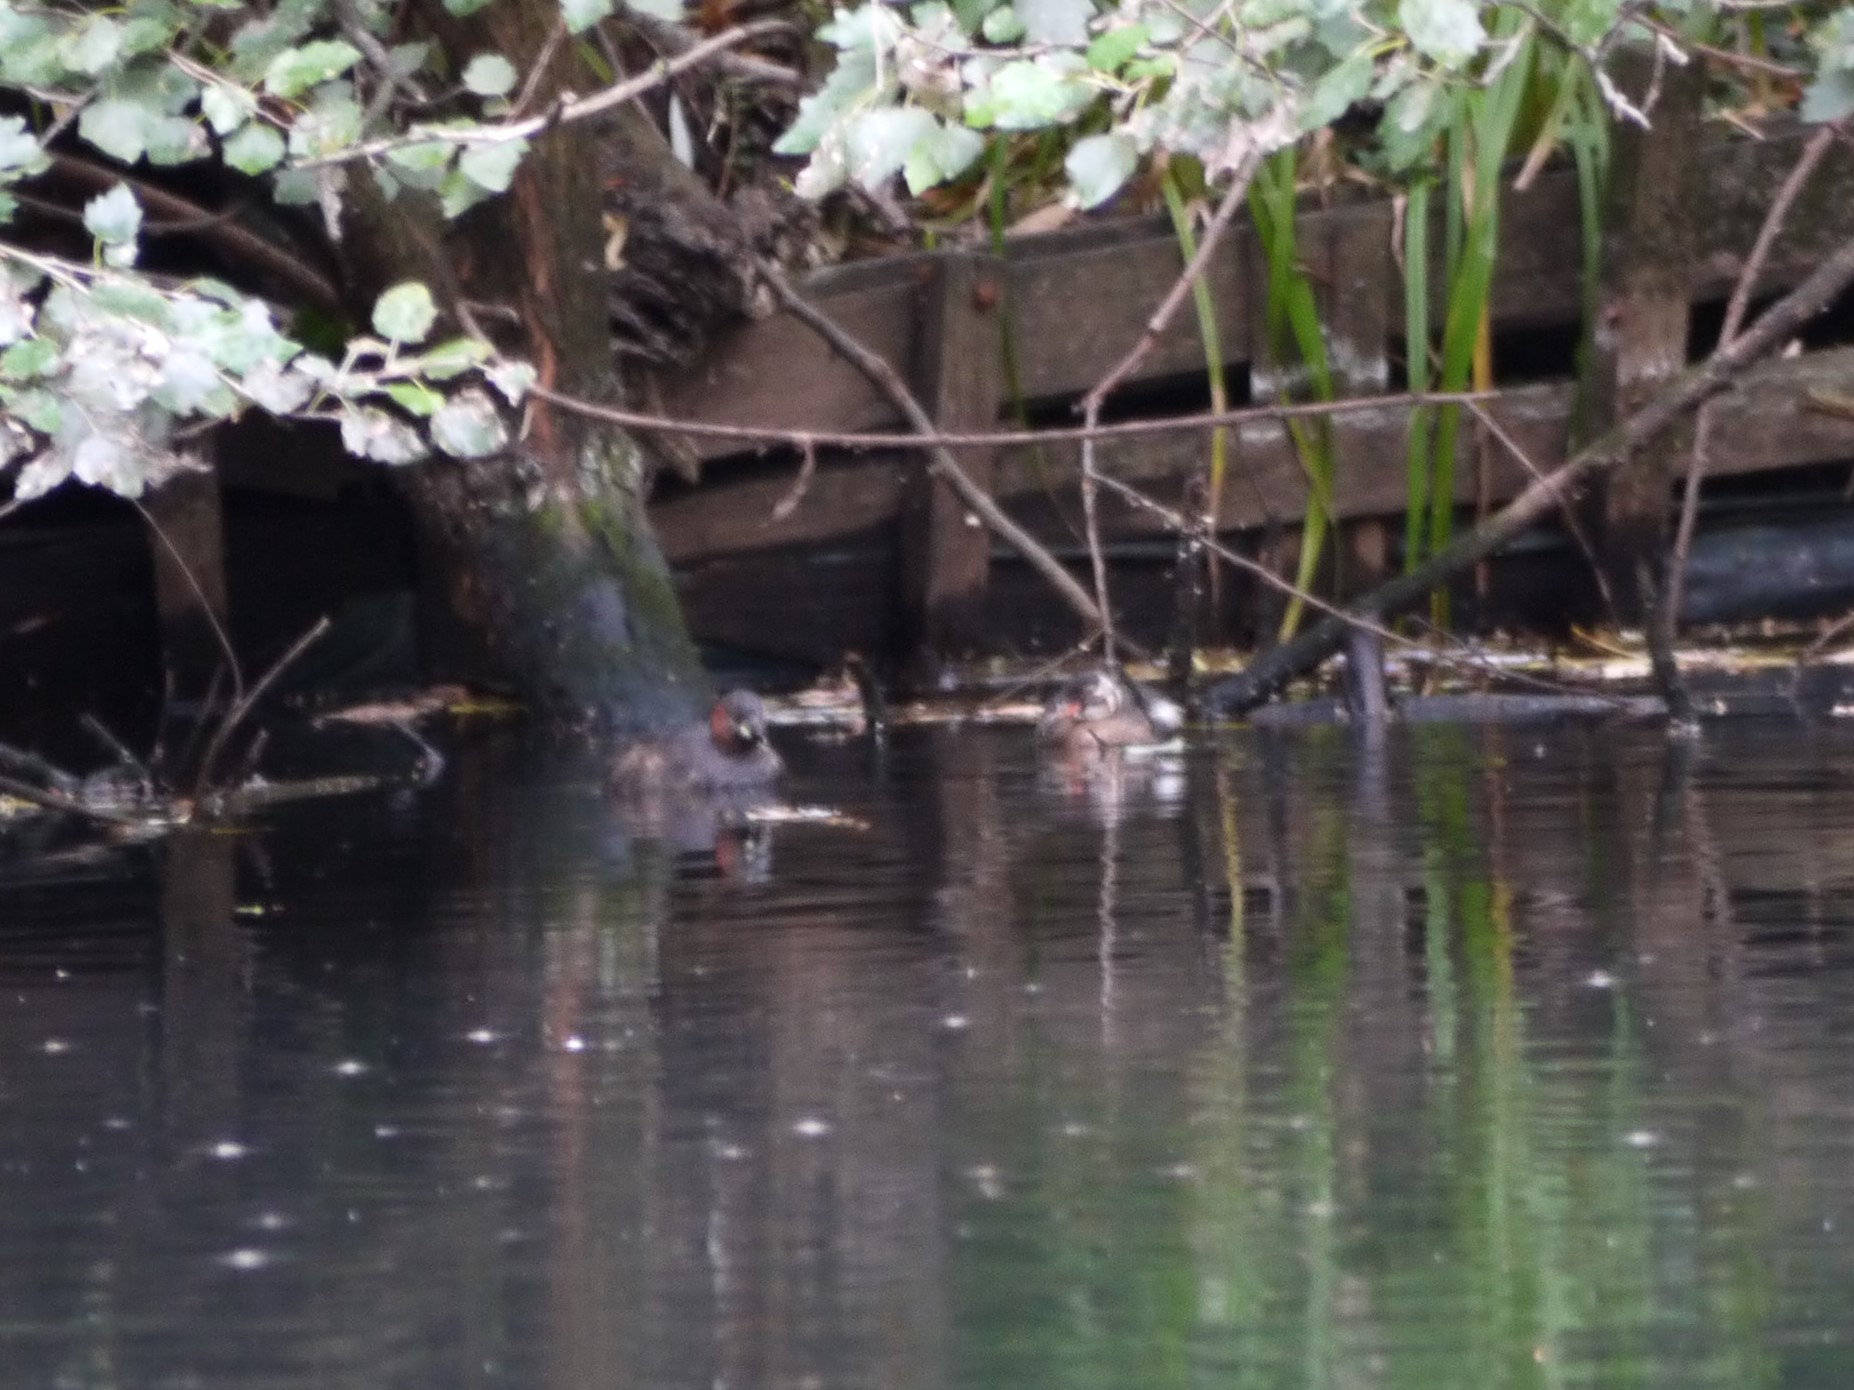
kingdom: Animalia
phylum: Chordata
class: Aves
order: Podicipediformes
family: Podicipedidae
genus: Tachybaptus
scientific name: Tachybaptus ruficollis
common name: Little grebe
